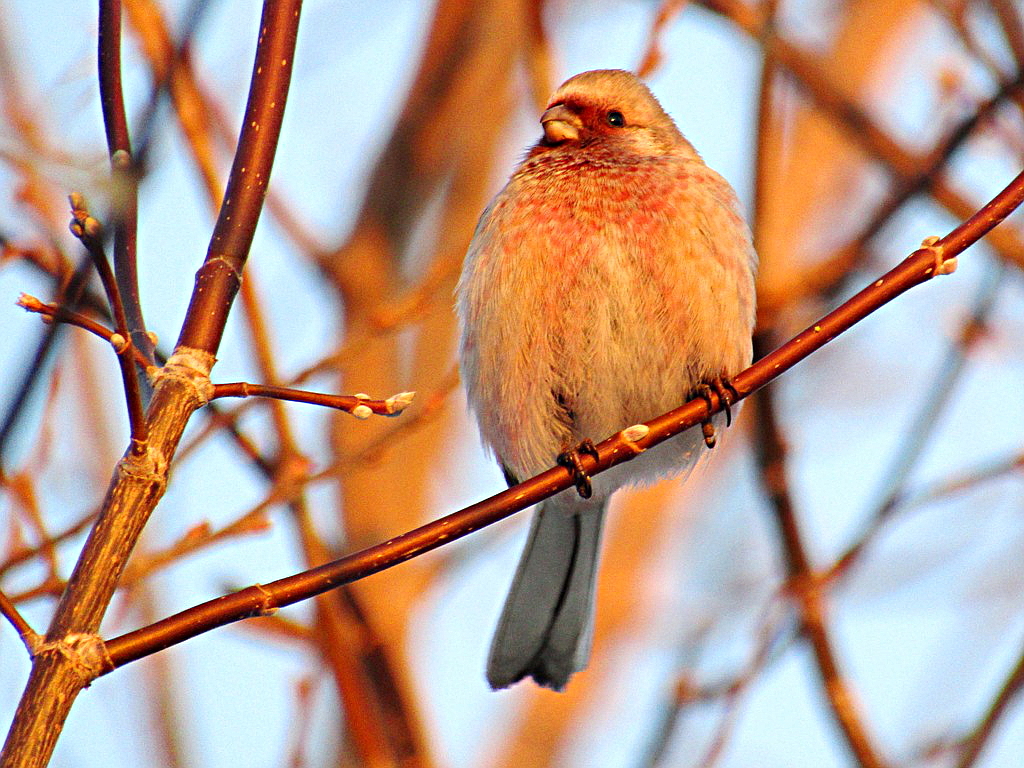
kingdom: Animalia
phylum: Chordata
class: Aves
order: Passeriformes
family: Fringillidae
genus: Carpodacus
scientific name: Carpodacus sibiricus
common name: Long-tailed rosefinch
